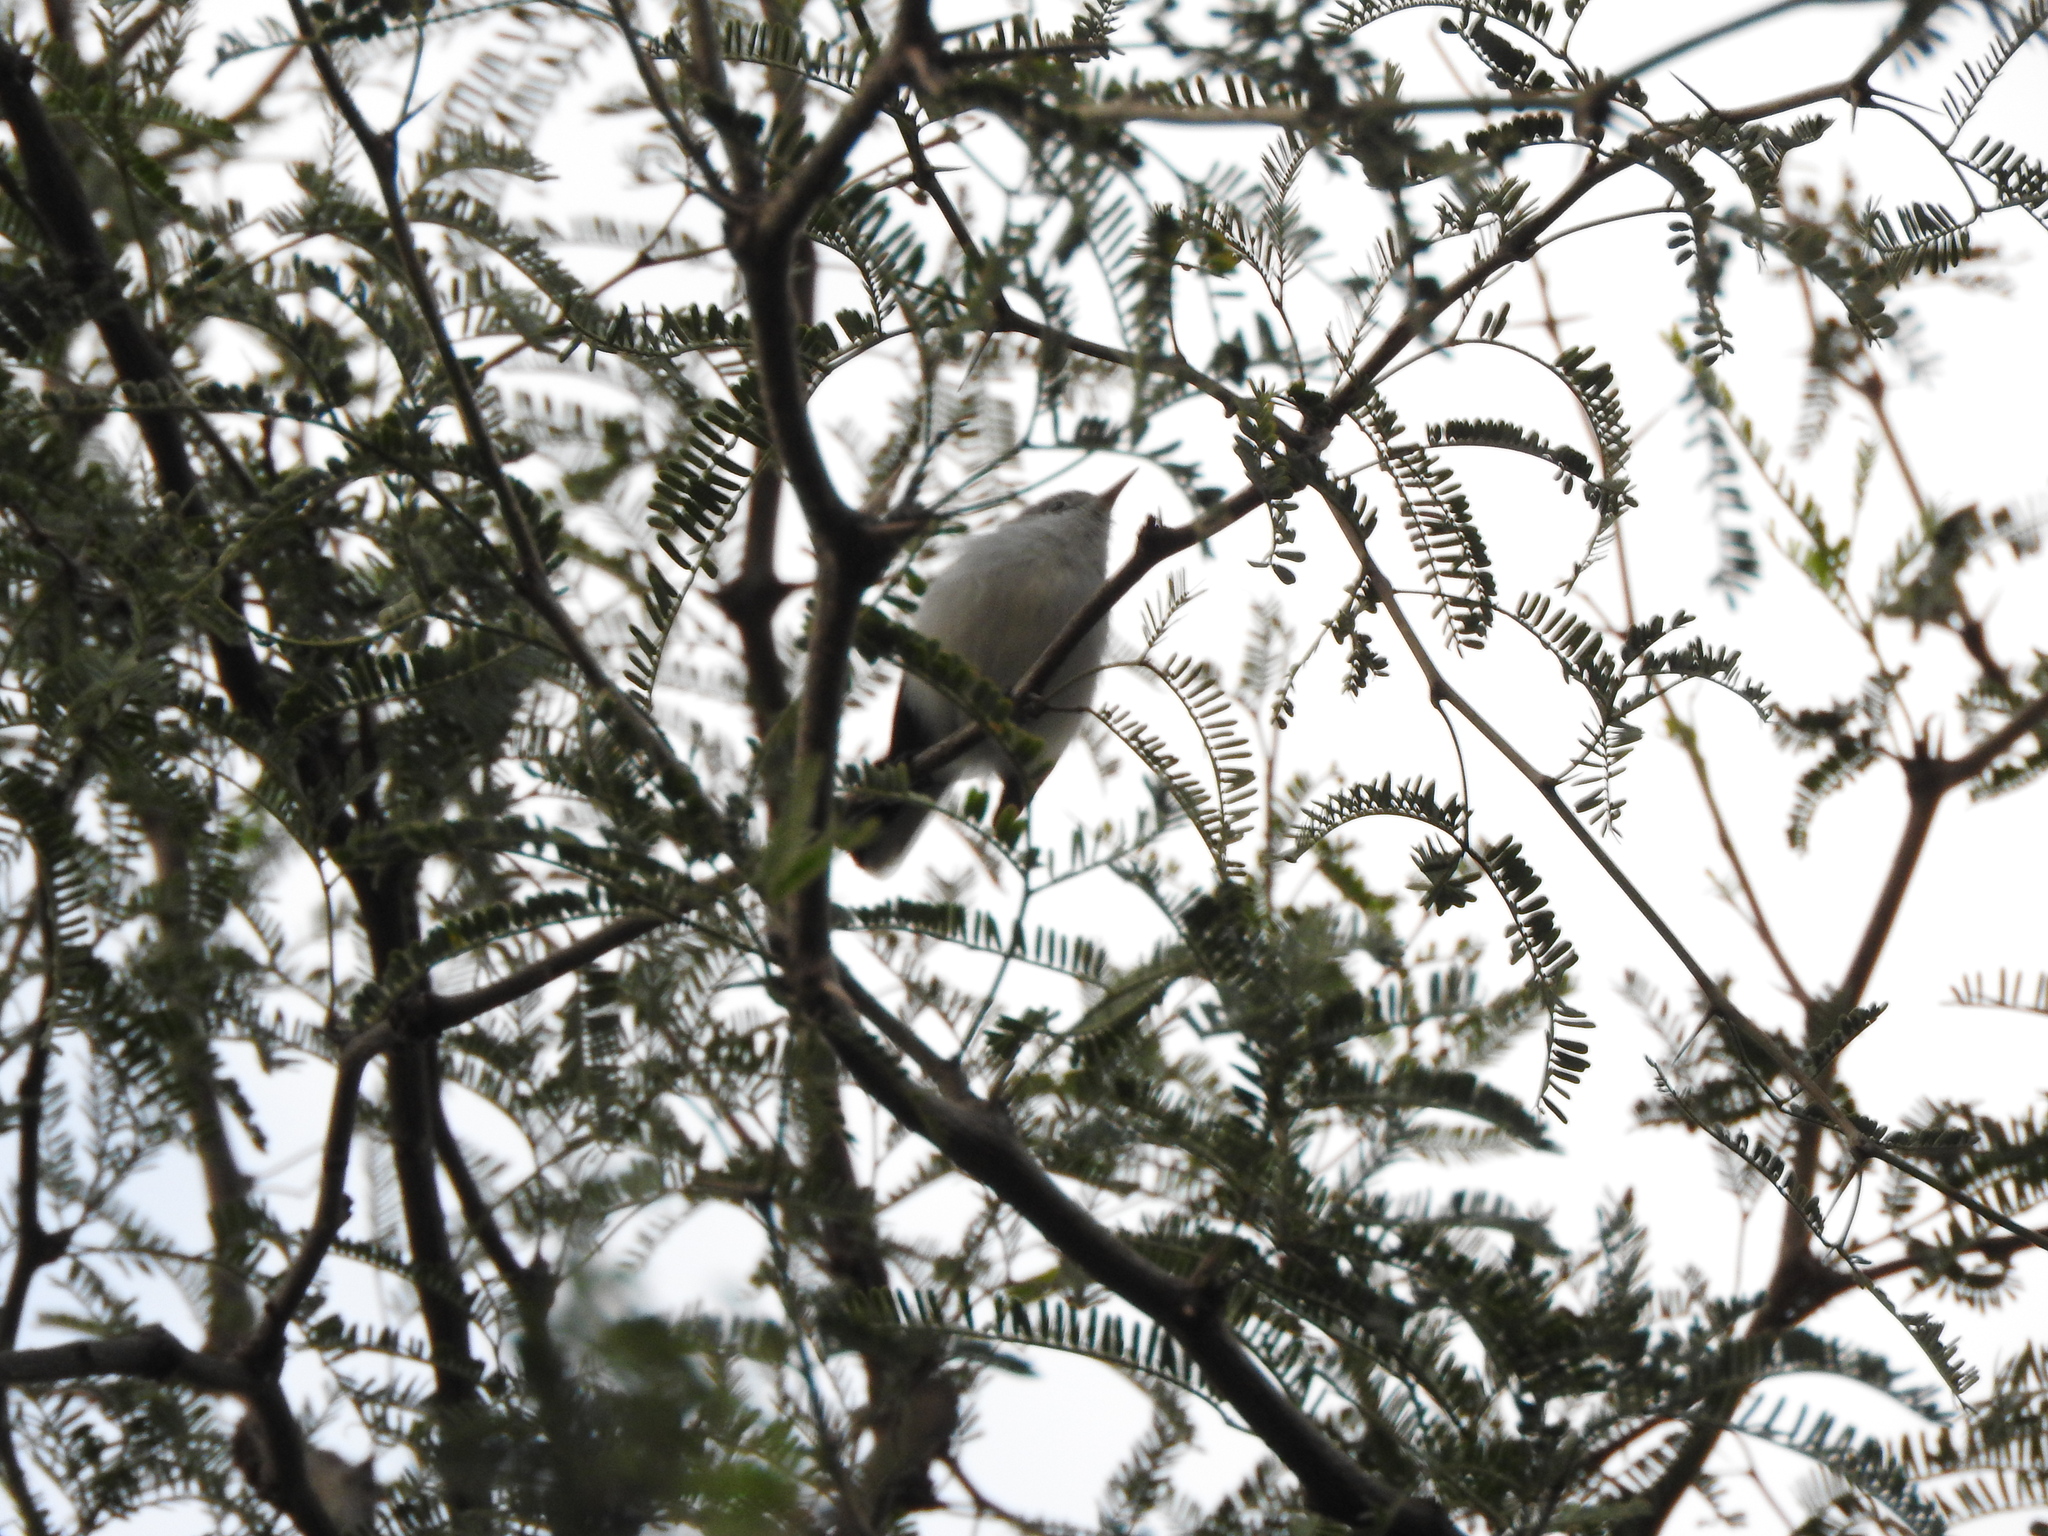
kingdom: Animalia
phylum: Chordata
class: Aves
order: Passeriformes
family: Polioptilidae
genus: Polioptila
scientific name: Polioptila caerulea
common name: Blue-gray gnatcatcher
